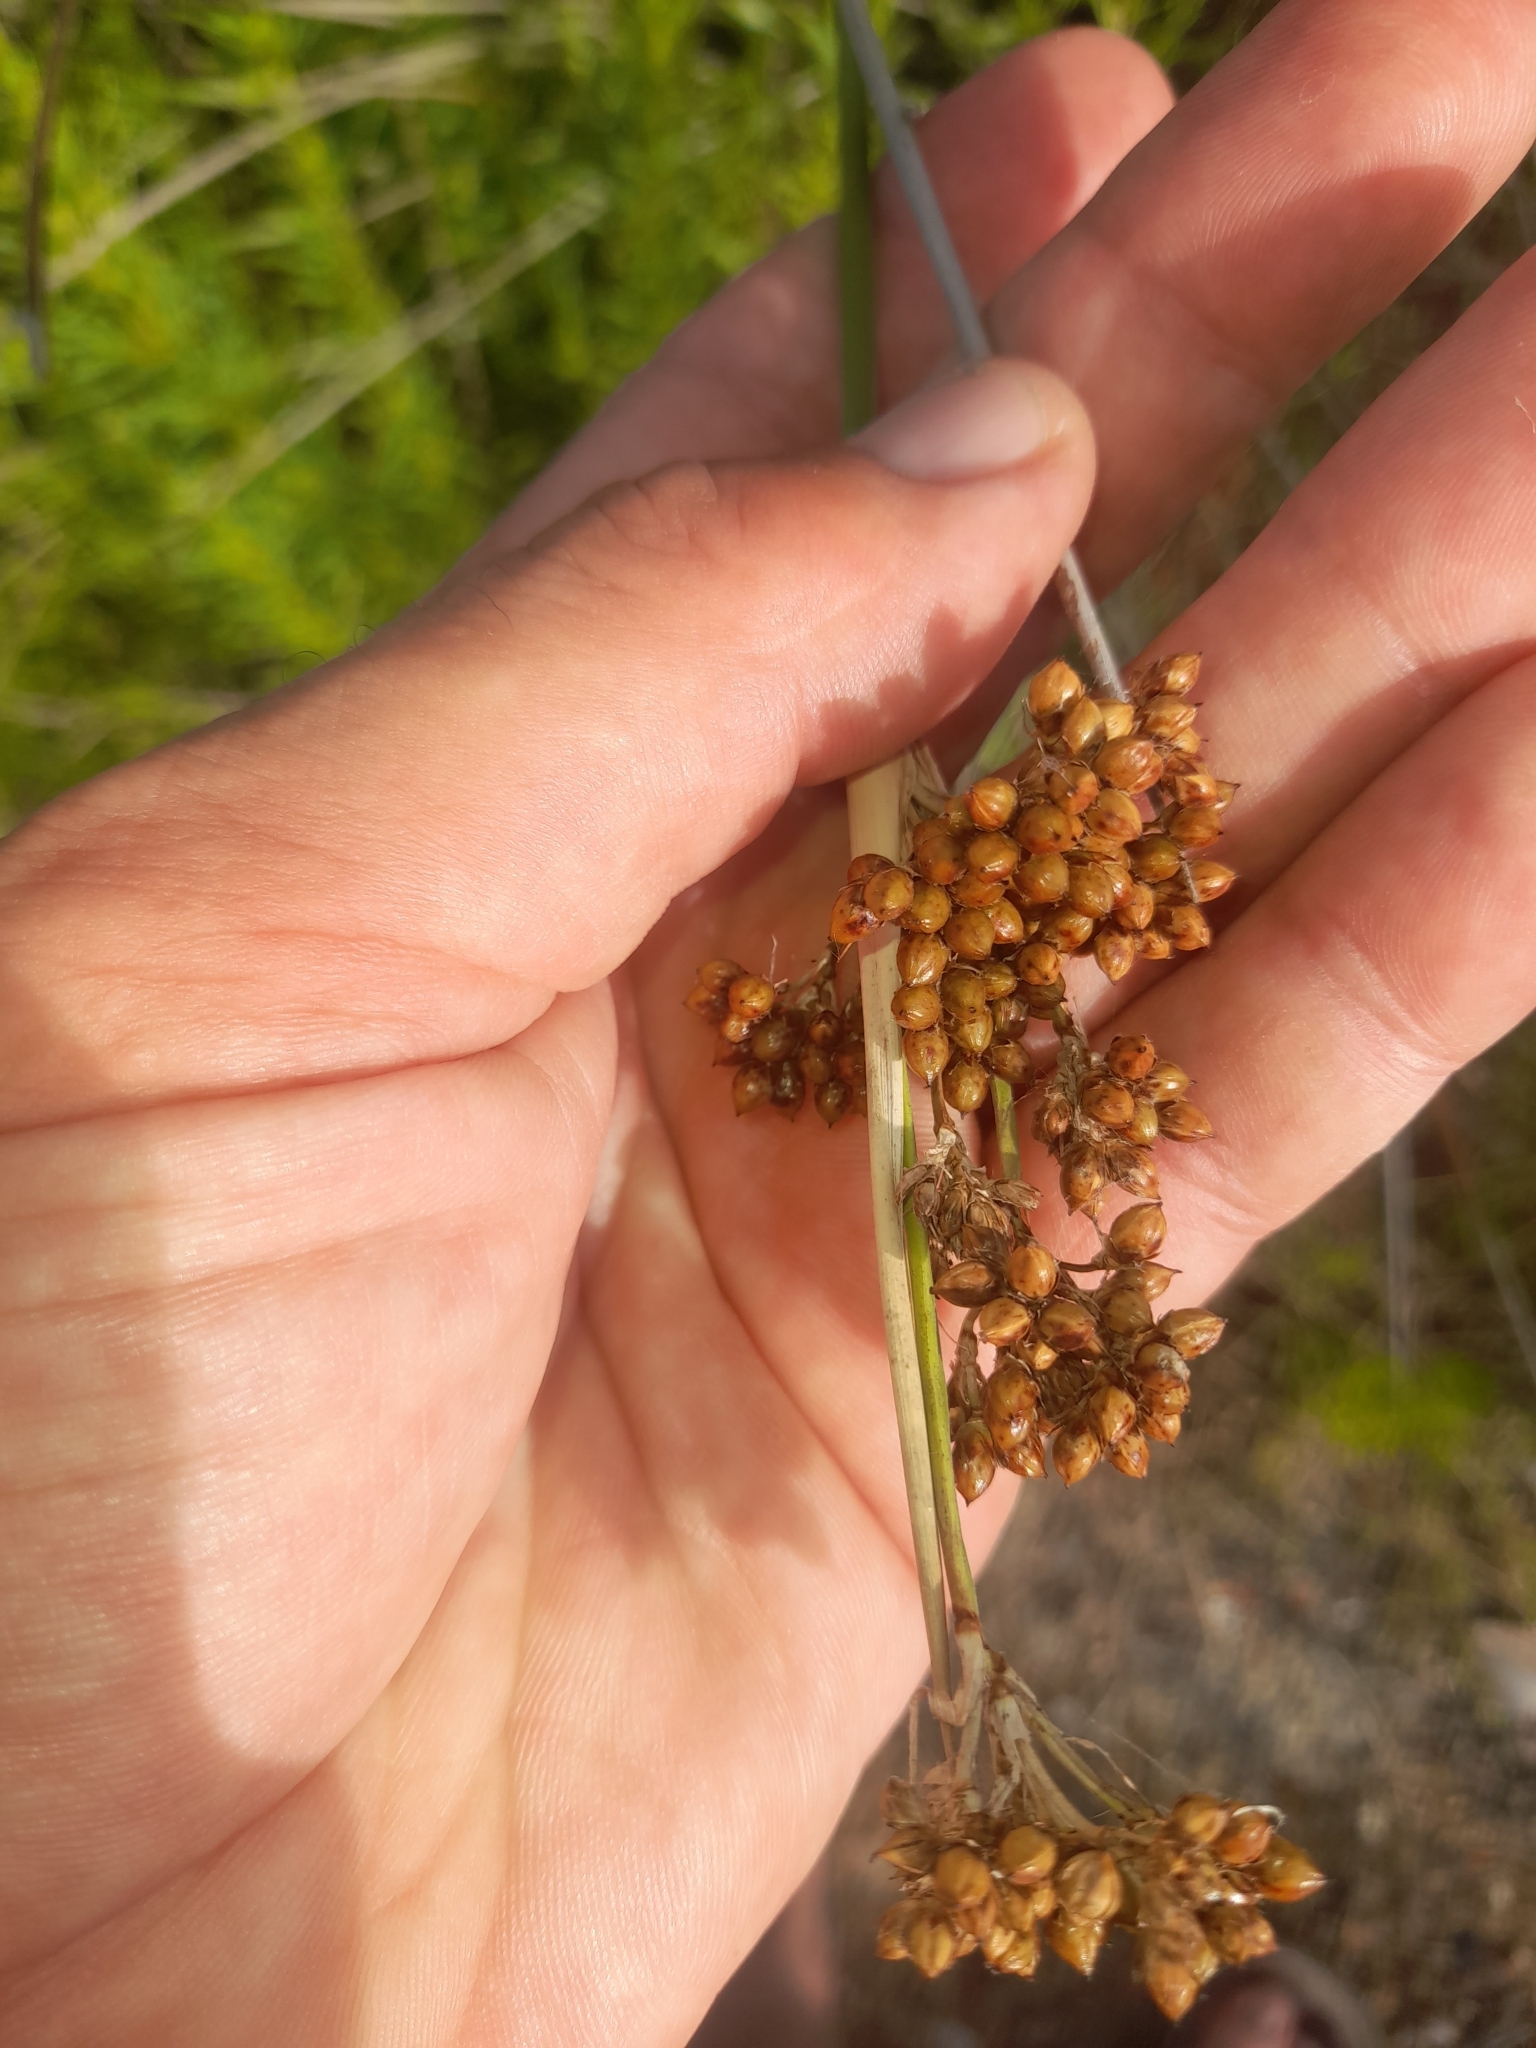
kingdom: Plantae
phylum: Tracheophyta
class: Liliopsida
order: Poales
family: Juncaceae
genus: Juncus
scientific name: Juncus acutus
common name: Sharp rush
